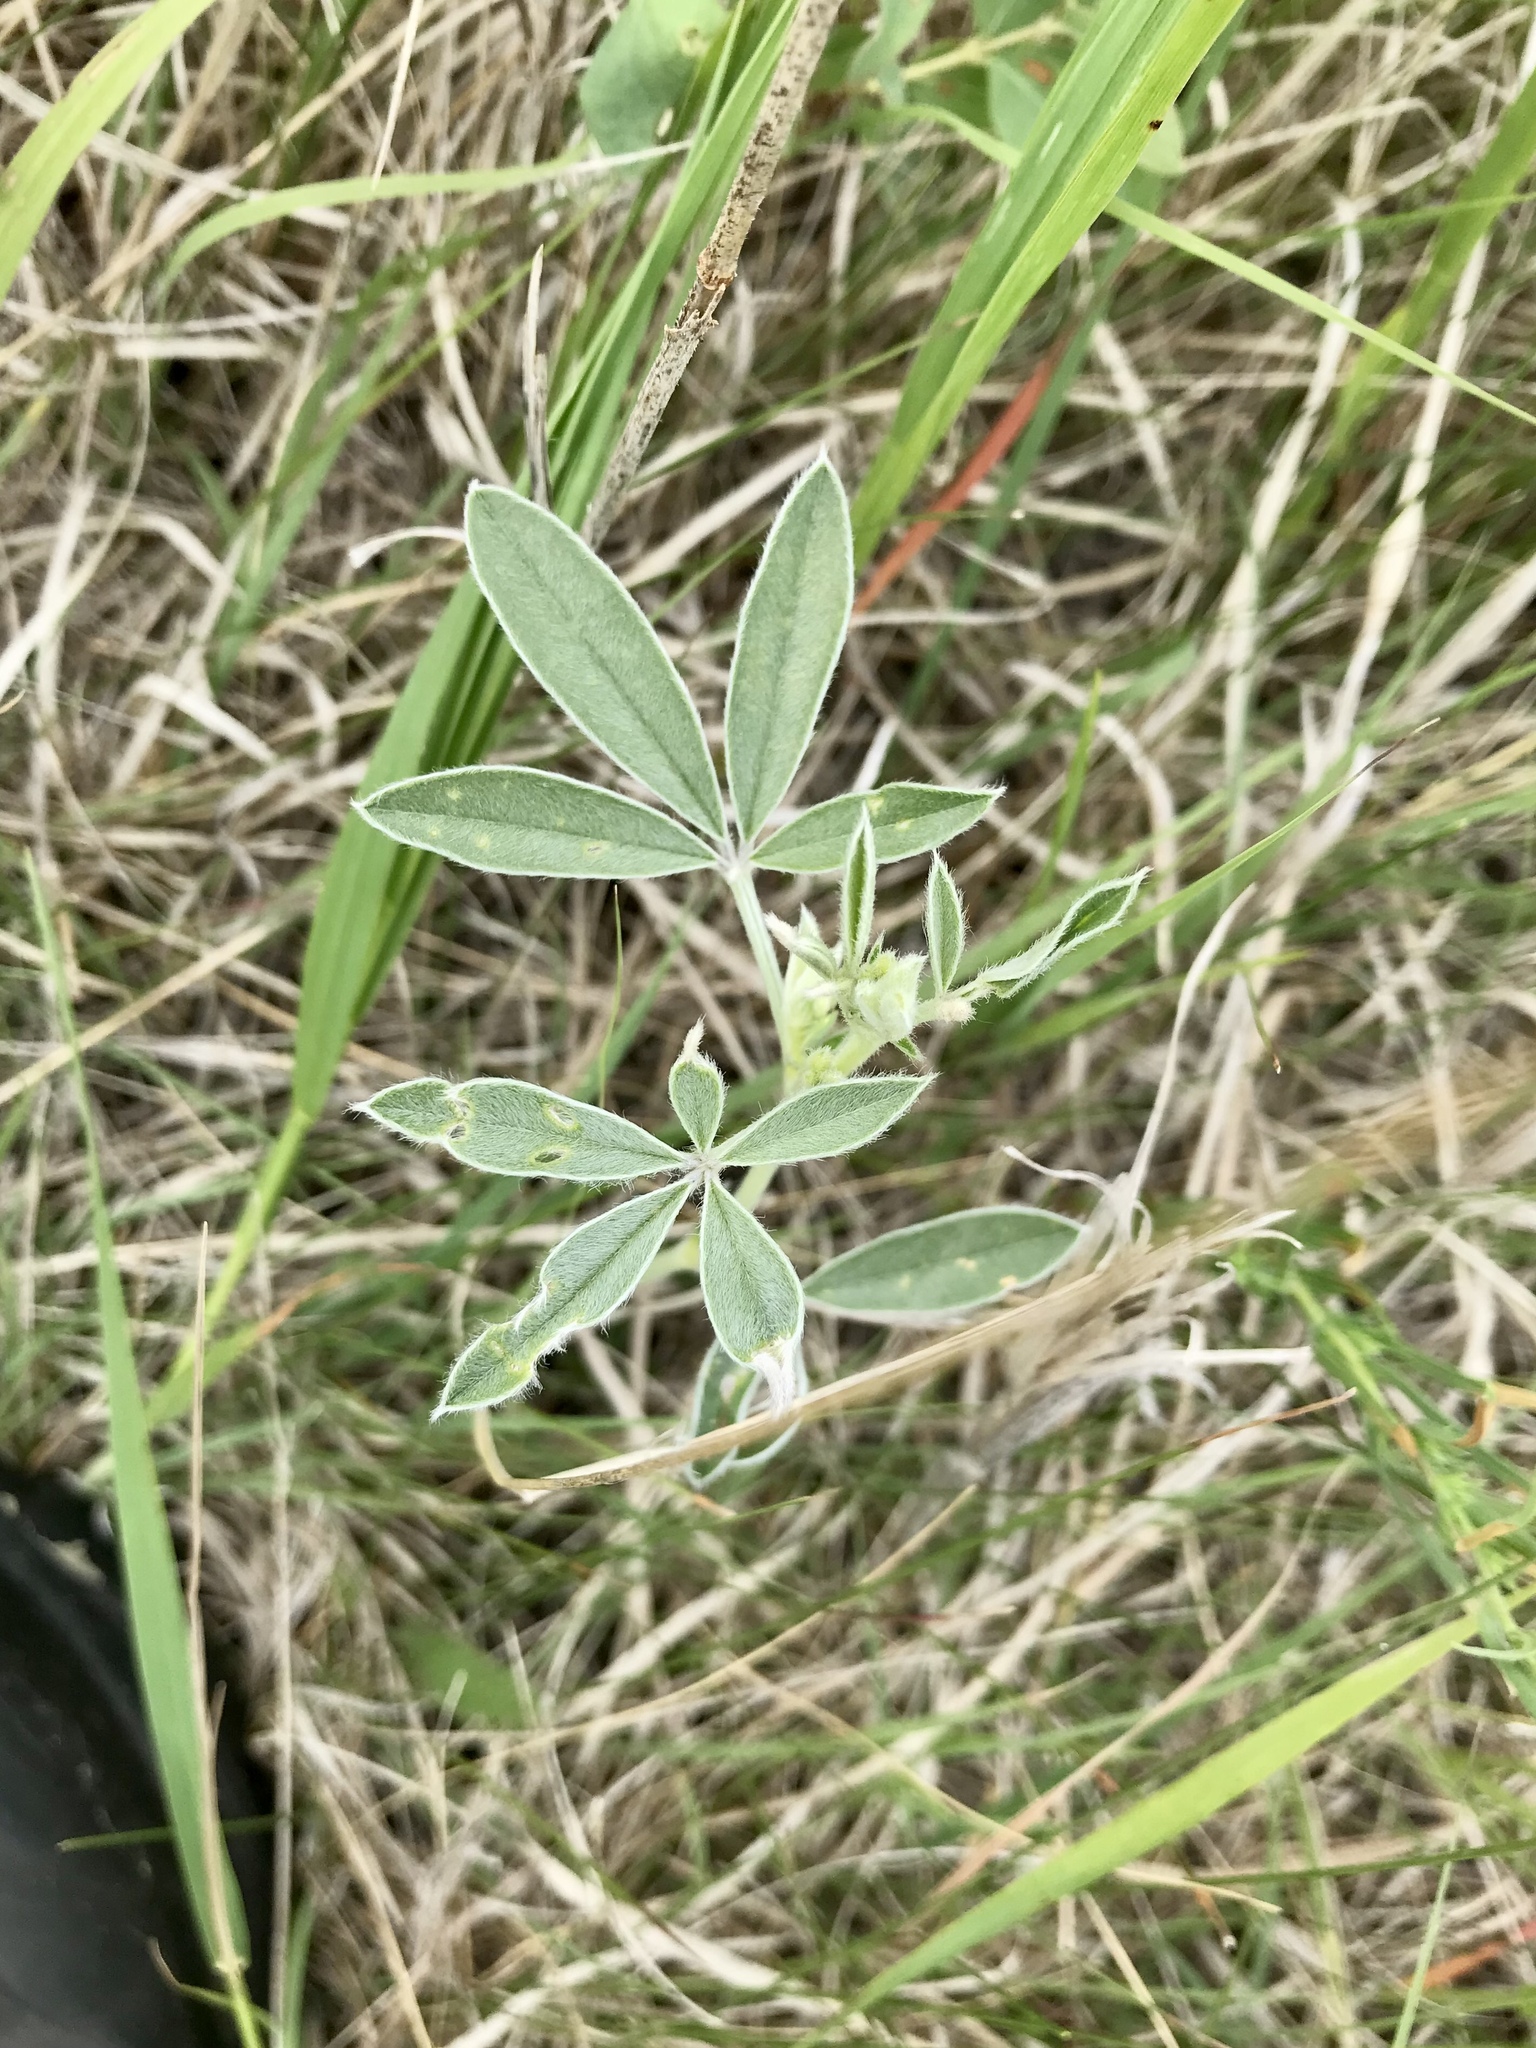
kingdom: Plantae
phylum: Tracheophyta
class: Magnoliopsida
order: Fabales
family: Fabaceae
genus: Pediomelum
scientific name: Pediomelum argophyllum
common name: Silver-leaved indian breadroot
